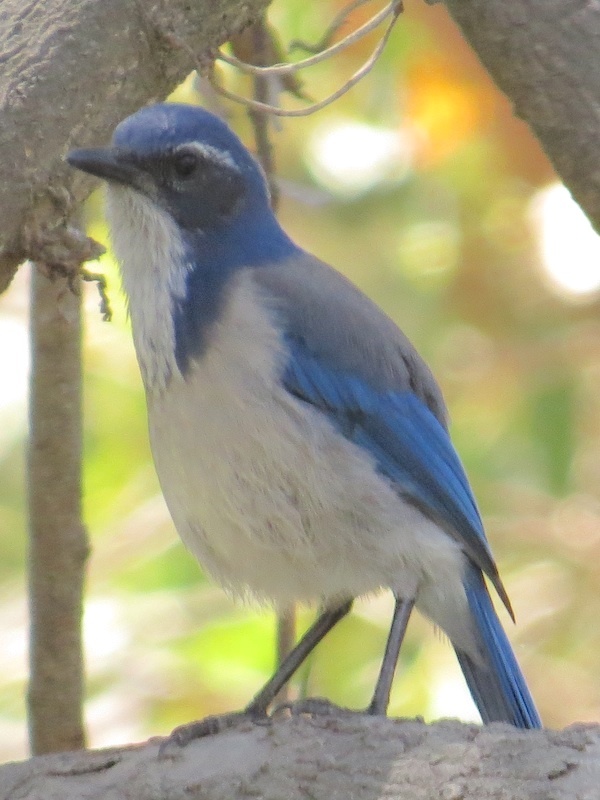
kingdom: Animalia
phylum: Chordata
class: Aves
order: Passeriformes
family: Corvidae
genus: Aphelocoma
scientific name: Aphelocoma californica
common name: California scrub-jay
